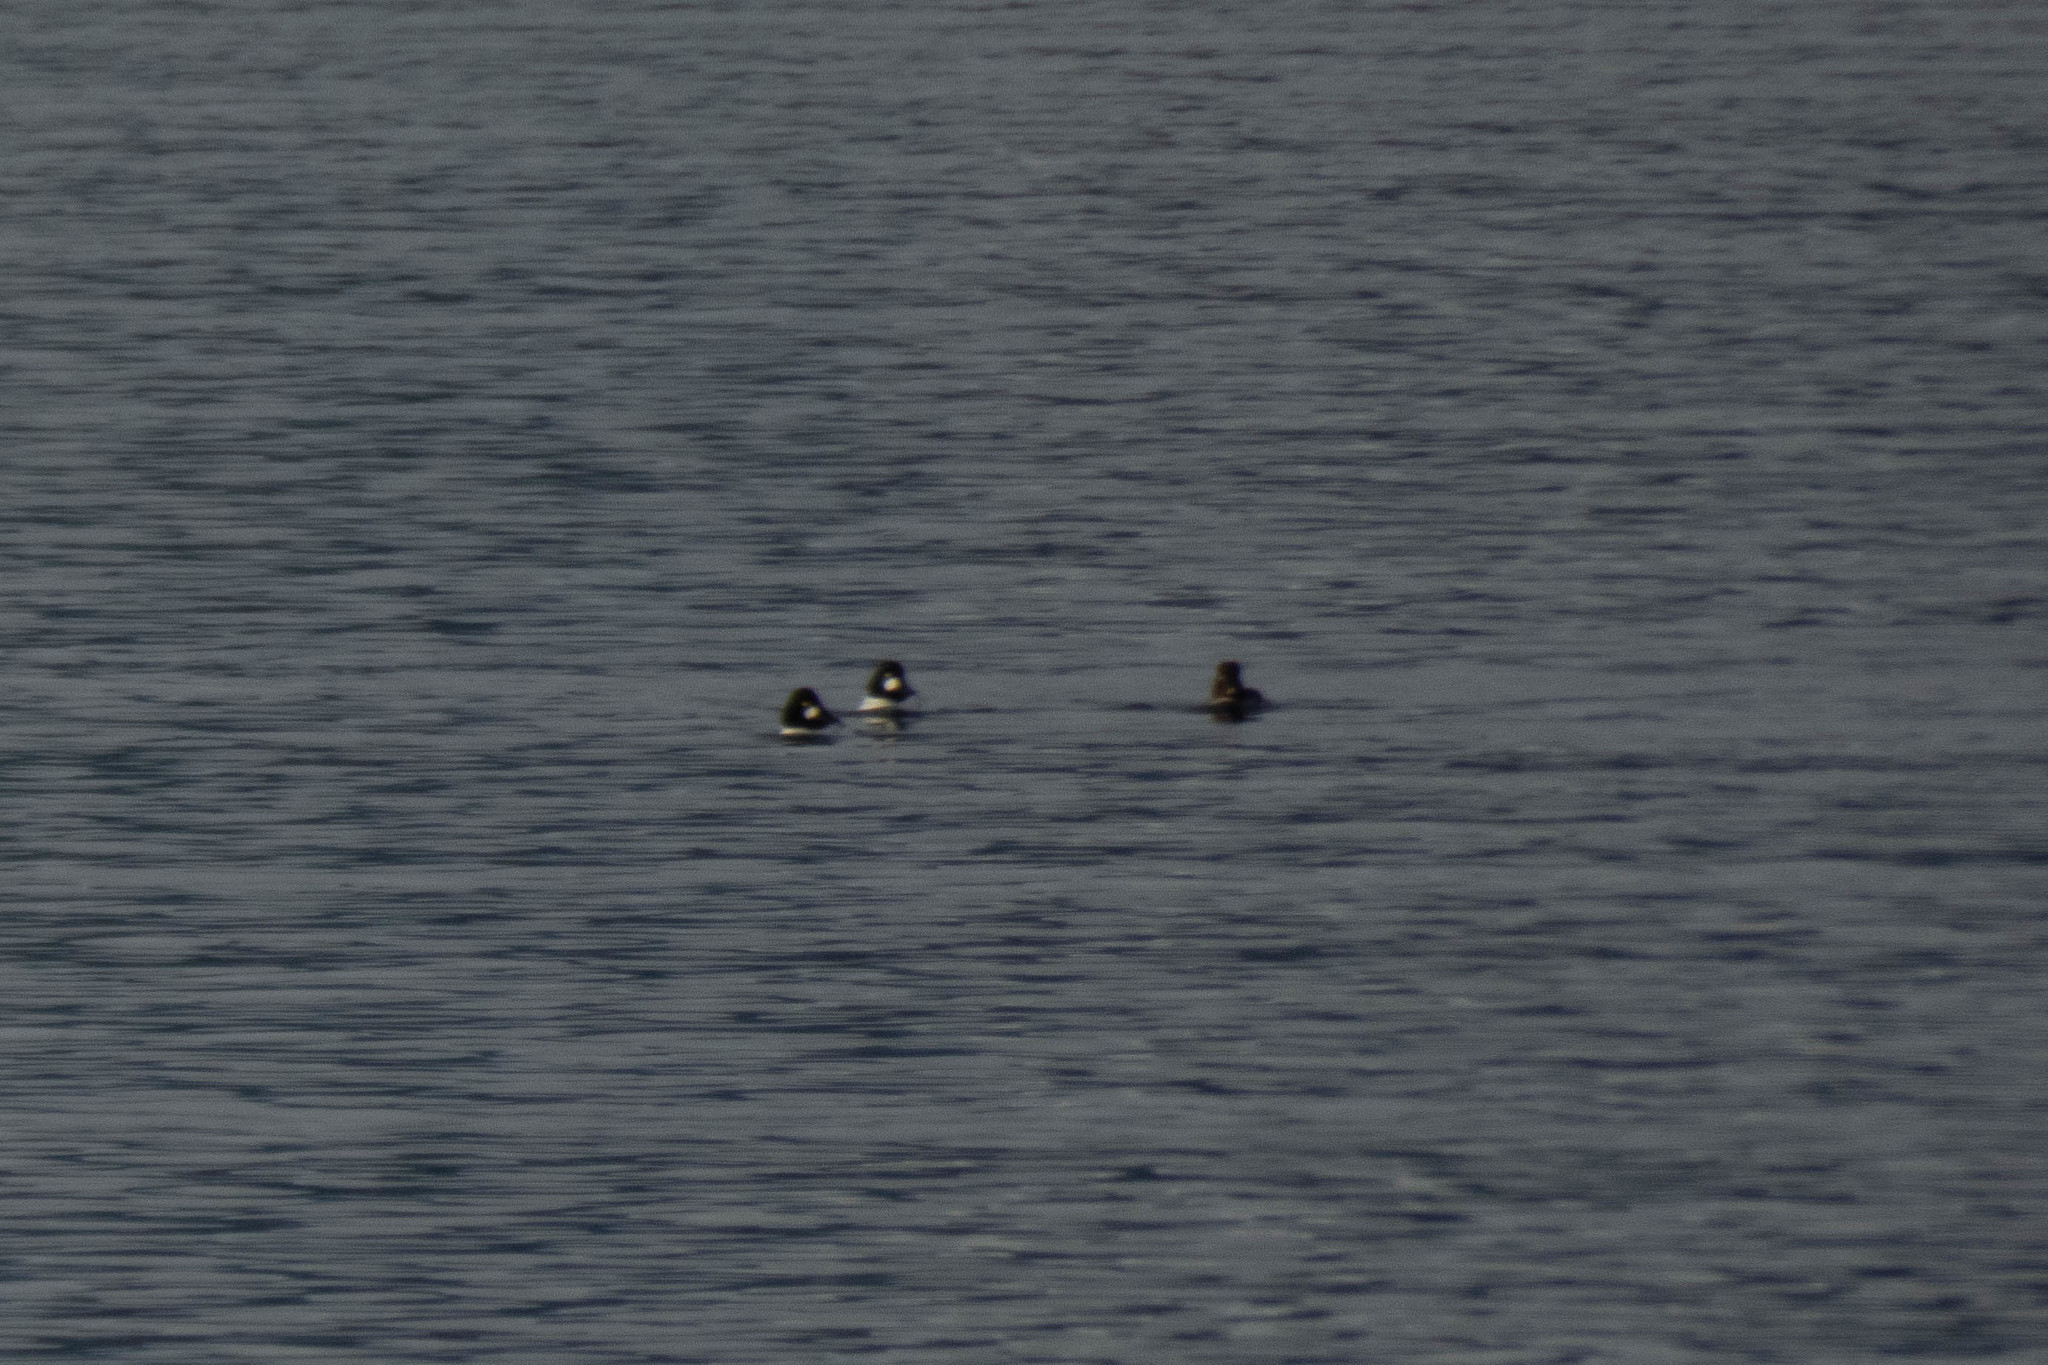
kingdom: Animalia
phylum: Chordata
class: Aves
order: Anseriformes
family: Anatidae
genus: Bucephala
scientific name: Bucephala clangula
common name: Common goldeneye
